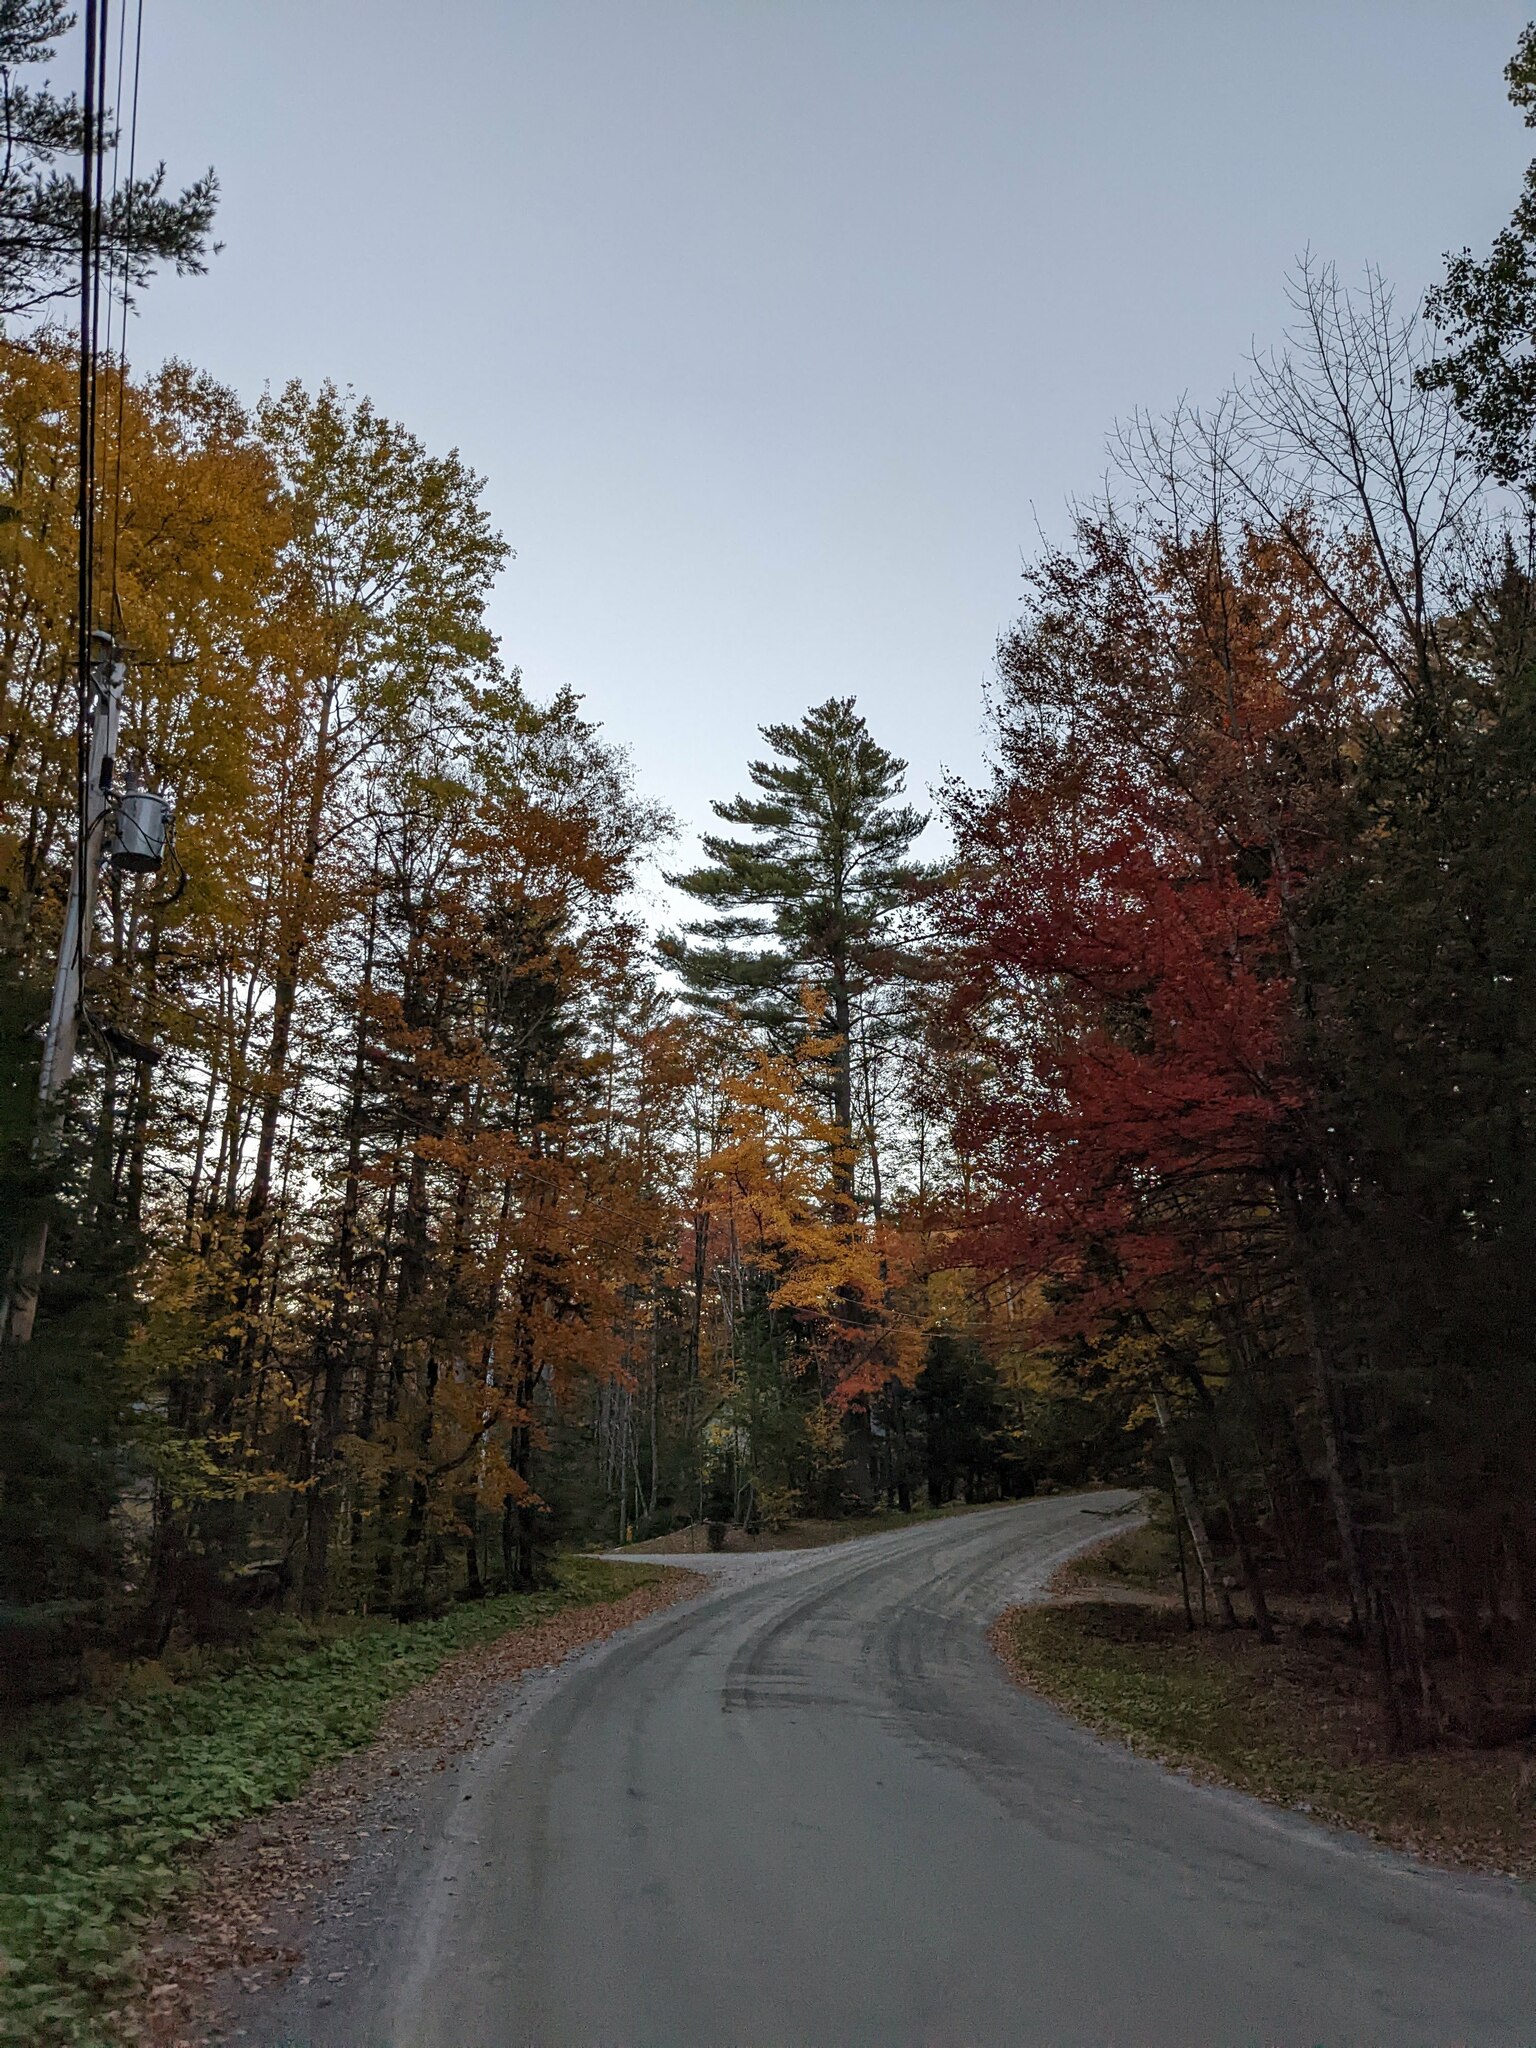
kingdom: Plantae
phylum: Tracheophyta
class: Pinopsida
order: Pinales
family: Pinaceae
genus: Pinus
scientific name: Pinus strobus
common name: Weymouth pine
